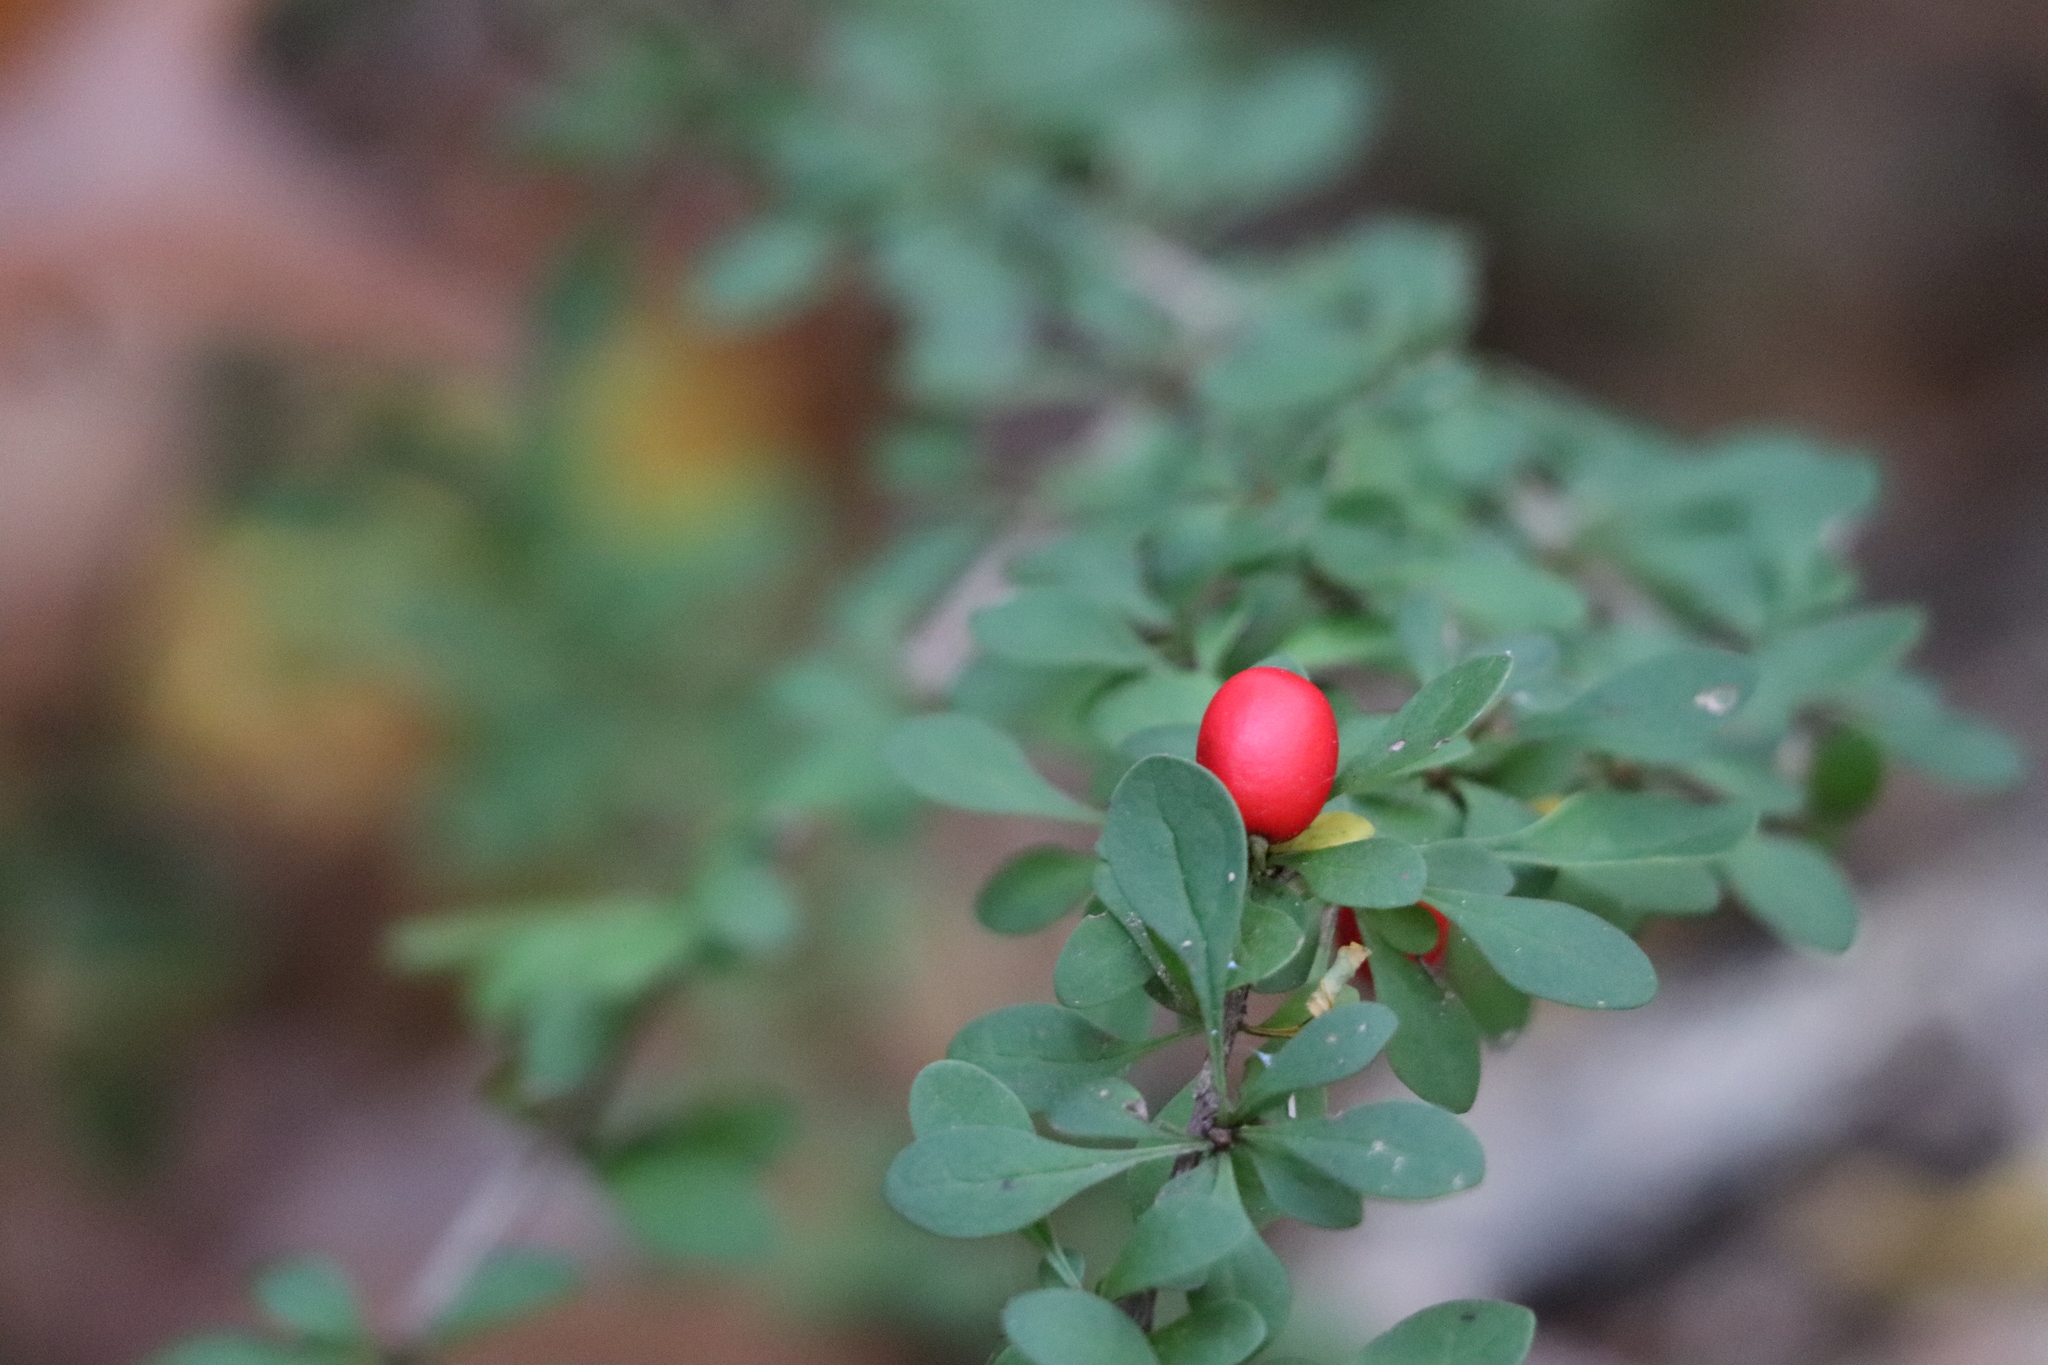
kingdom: Plantae
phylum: Tracheophyta
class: Magnoliopsida
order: Ranunculales
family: Berberidaceae
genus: Berberis
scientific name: Berberis thunbergii
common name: Japanese barberry
